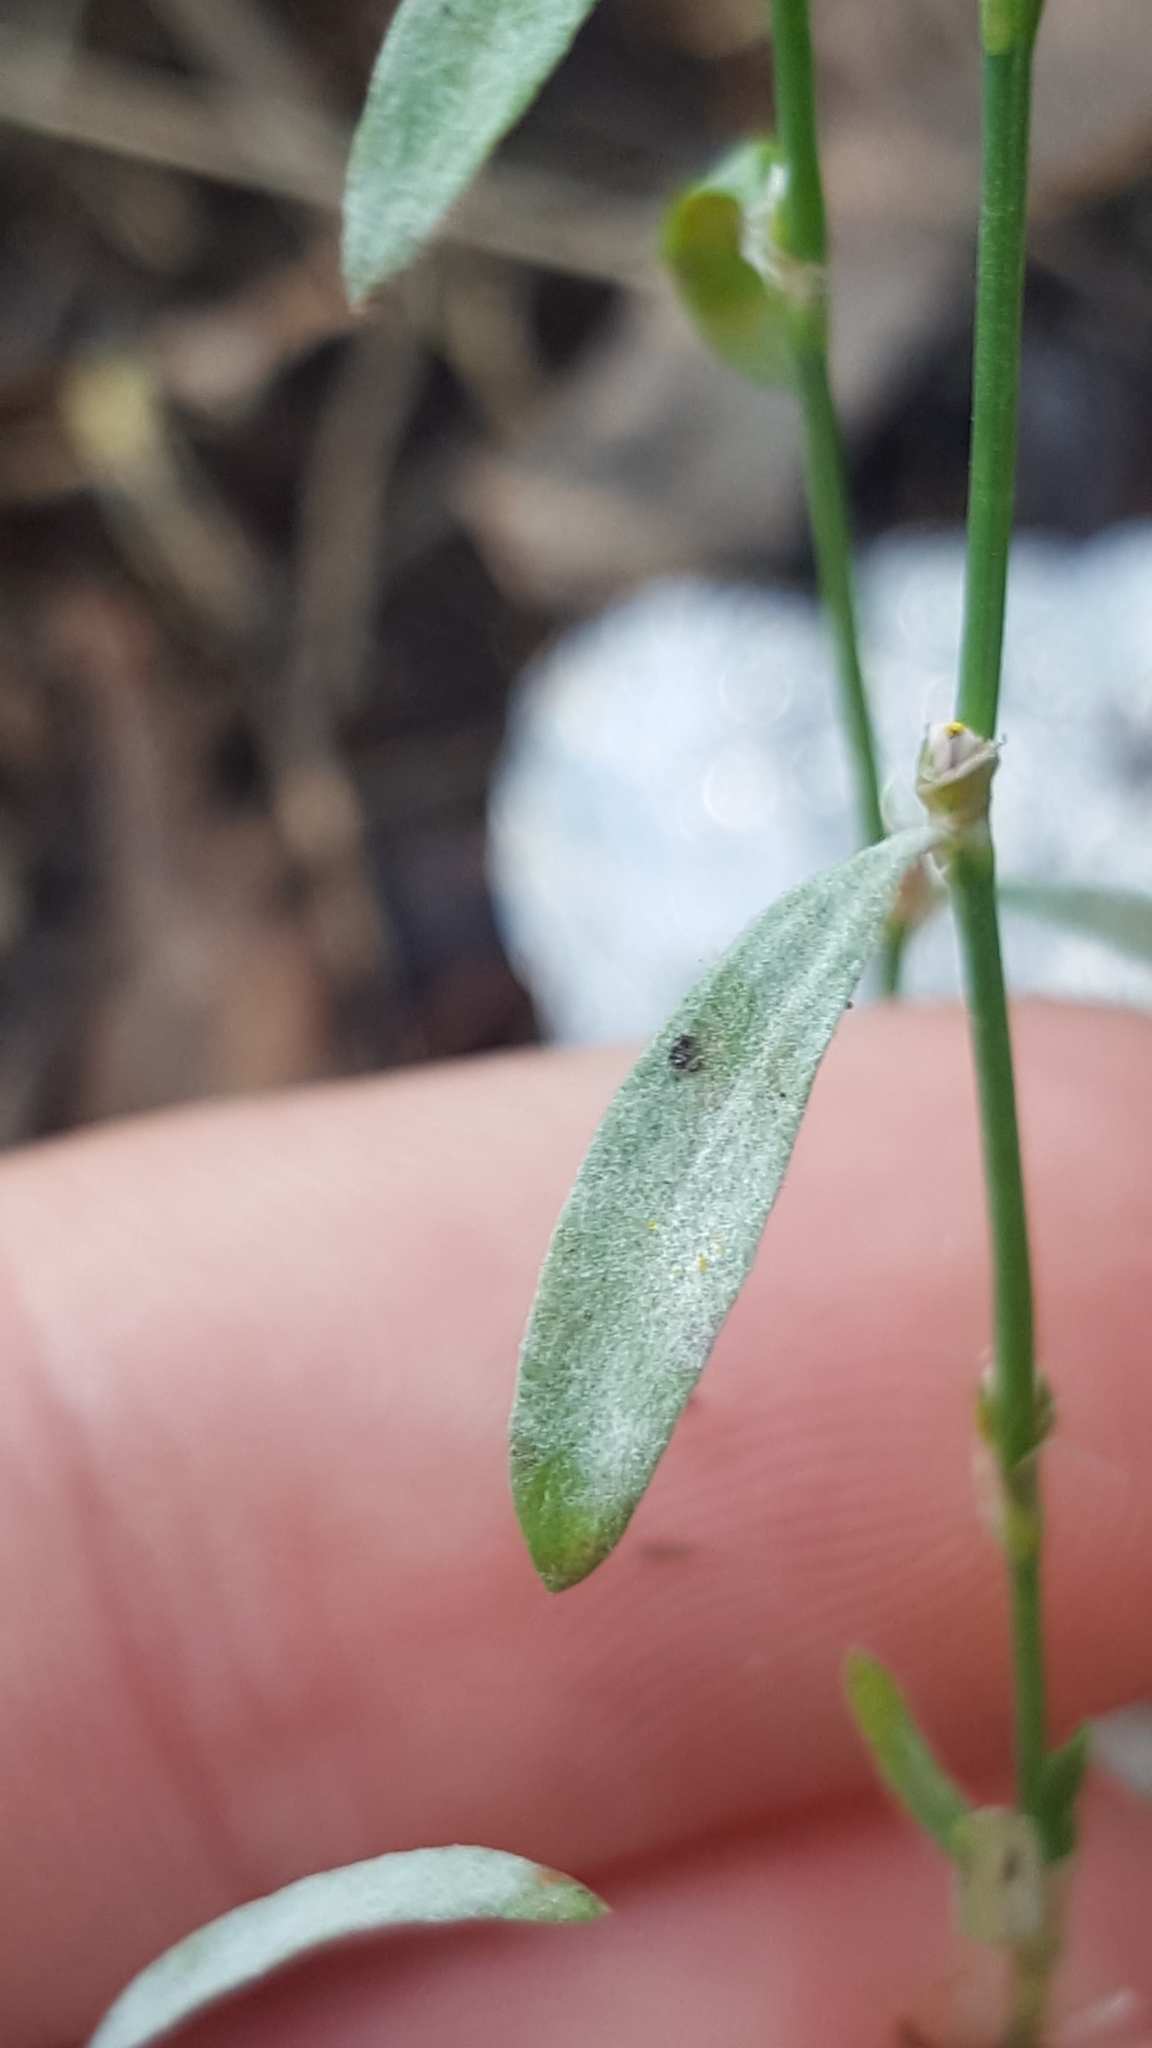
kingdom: Fungi
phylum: Ascomycota
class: Leotiomycetes
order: Helotiales
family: Erysiphaceae
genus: Erysiphe
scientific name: Erysiphe polygoni
